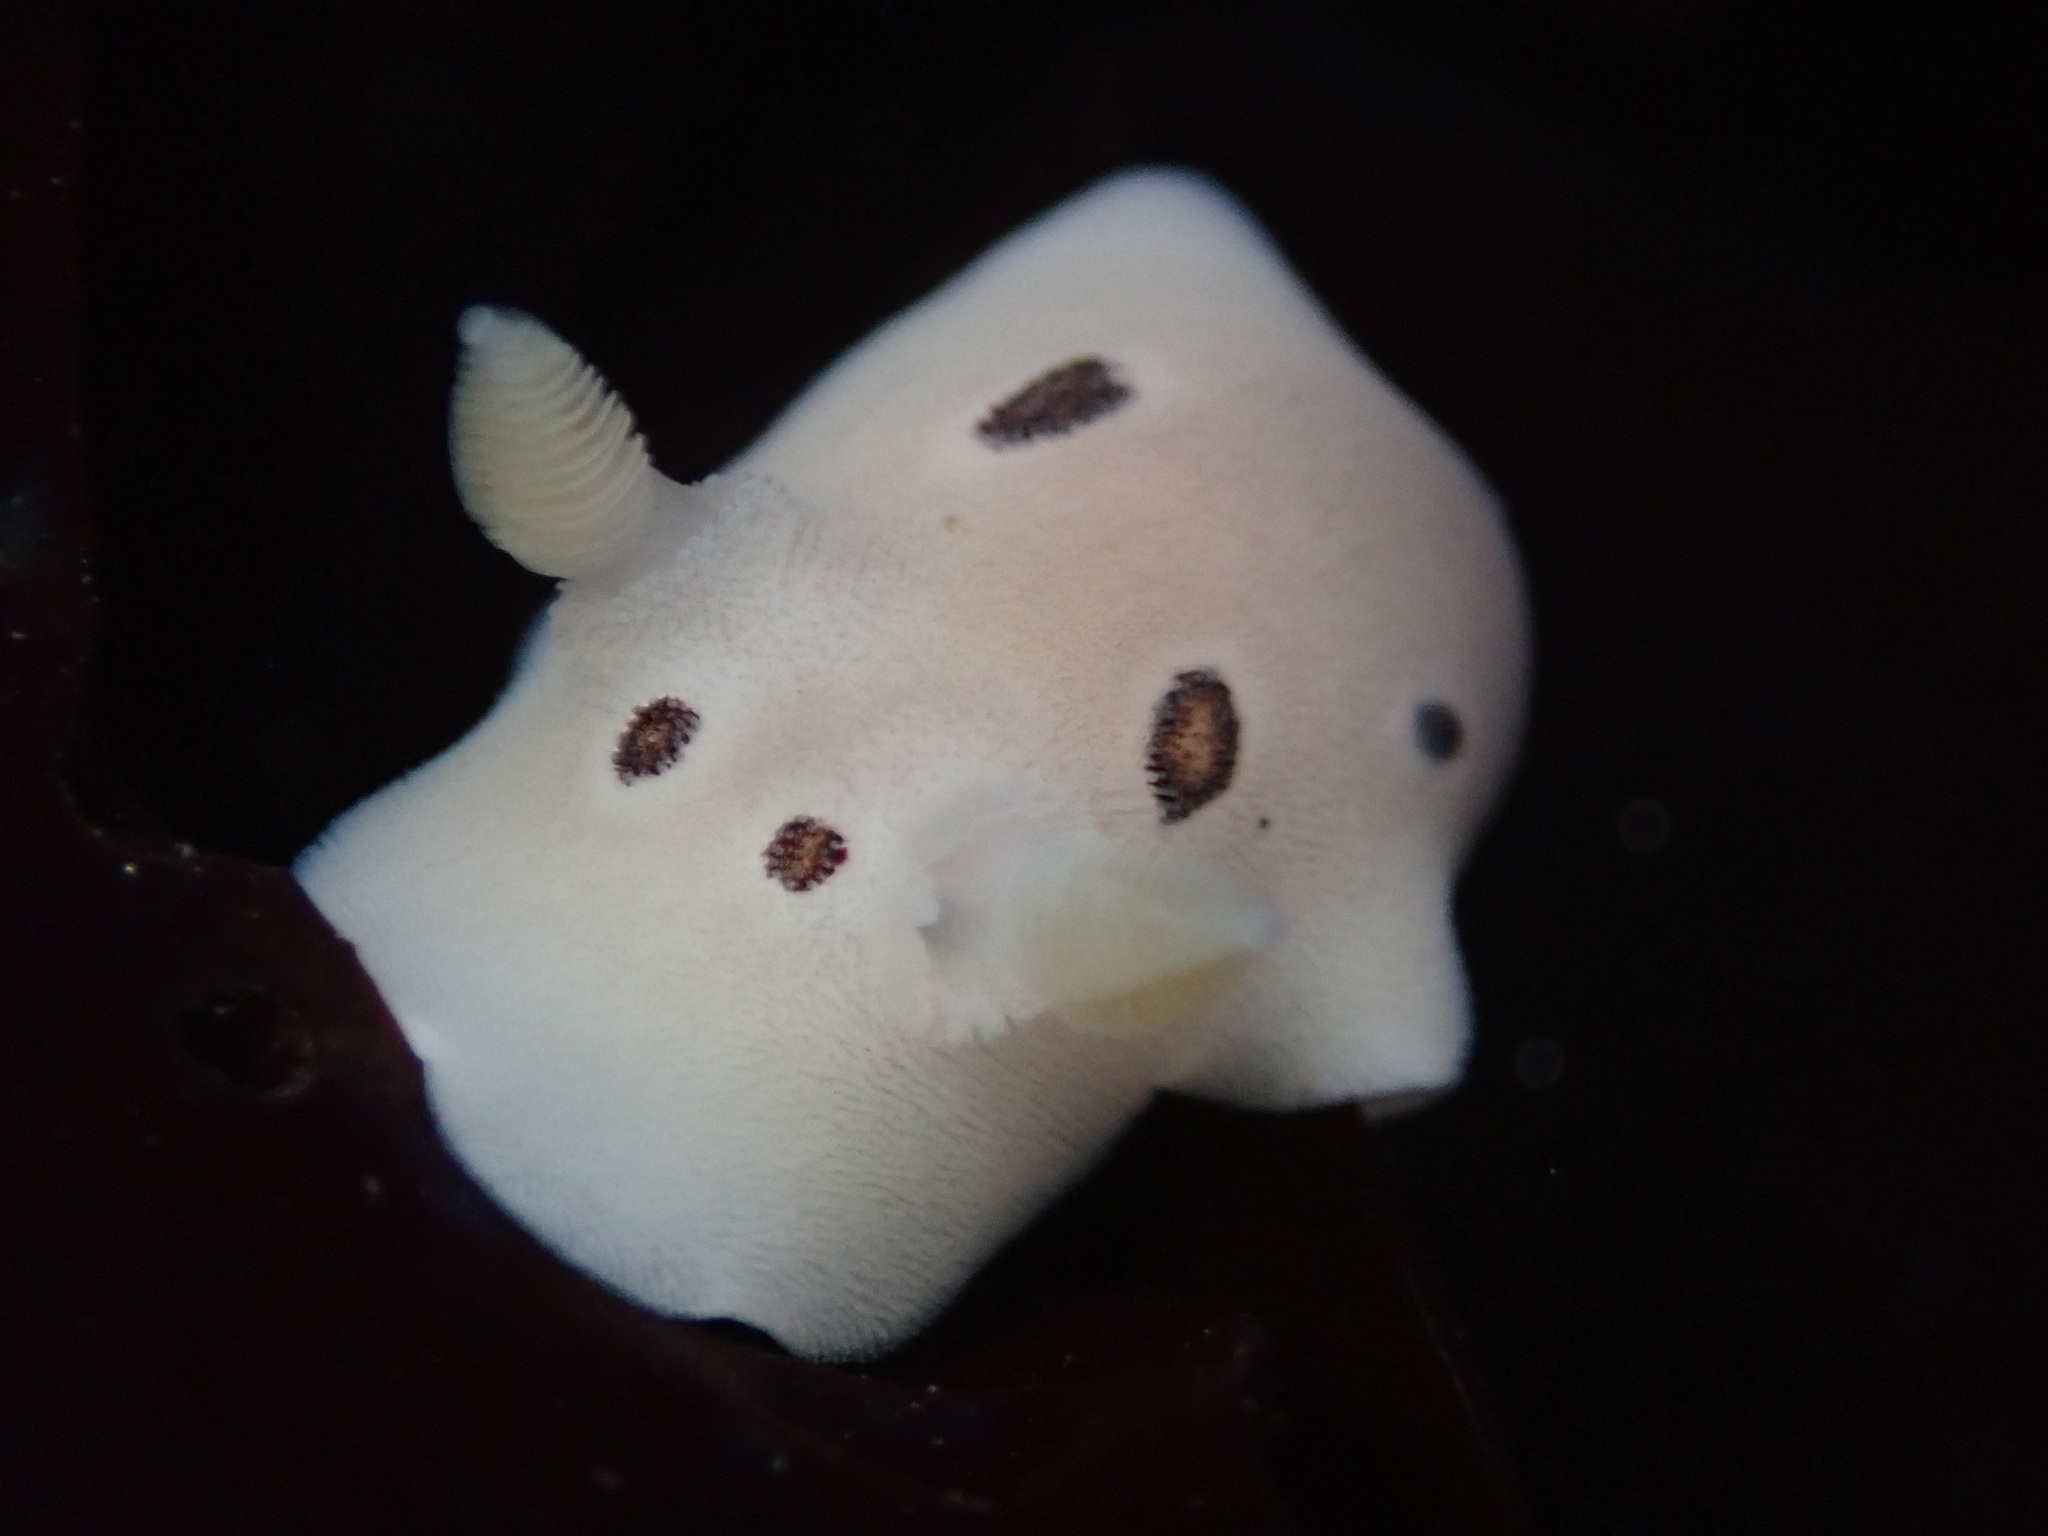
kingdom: Animalia
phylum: Mollusca
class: Gastropoda
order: Nudibranchia
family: Discodorididae
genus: Diaulula
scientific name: Diaulula sandiegensis
